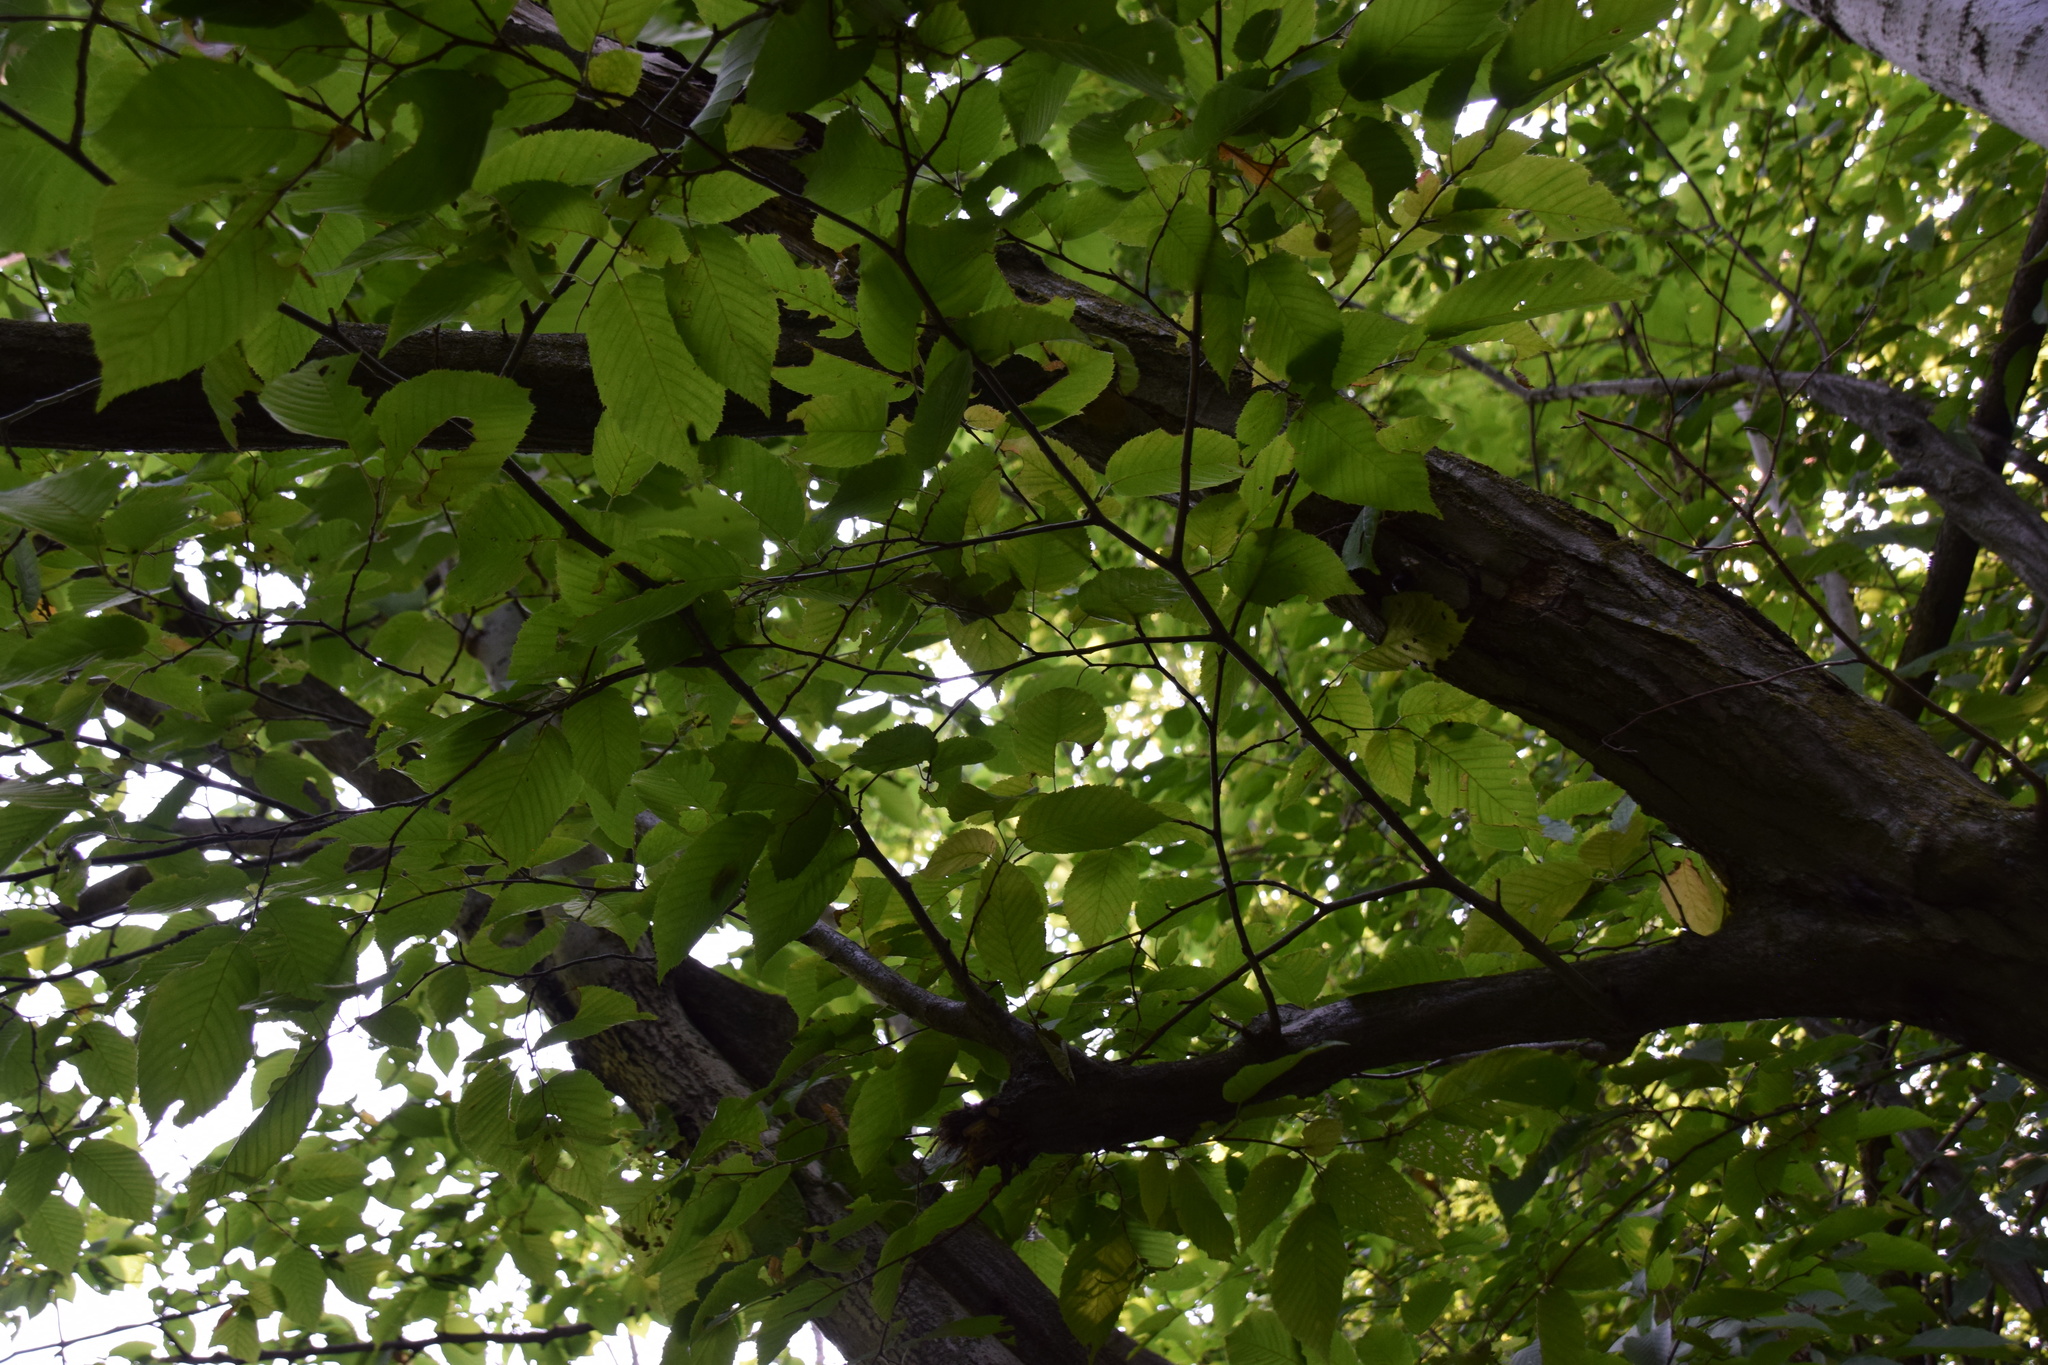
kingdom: Plantae
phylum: Tracheophyta
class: Magnoliopsida
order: Fagales
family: Betulaceae
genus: Carpinus
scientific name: Carpinus caroliniana
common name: American hornbeam
